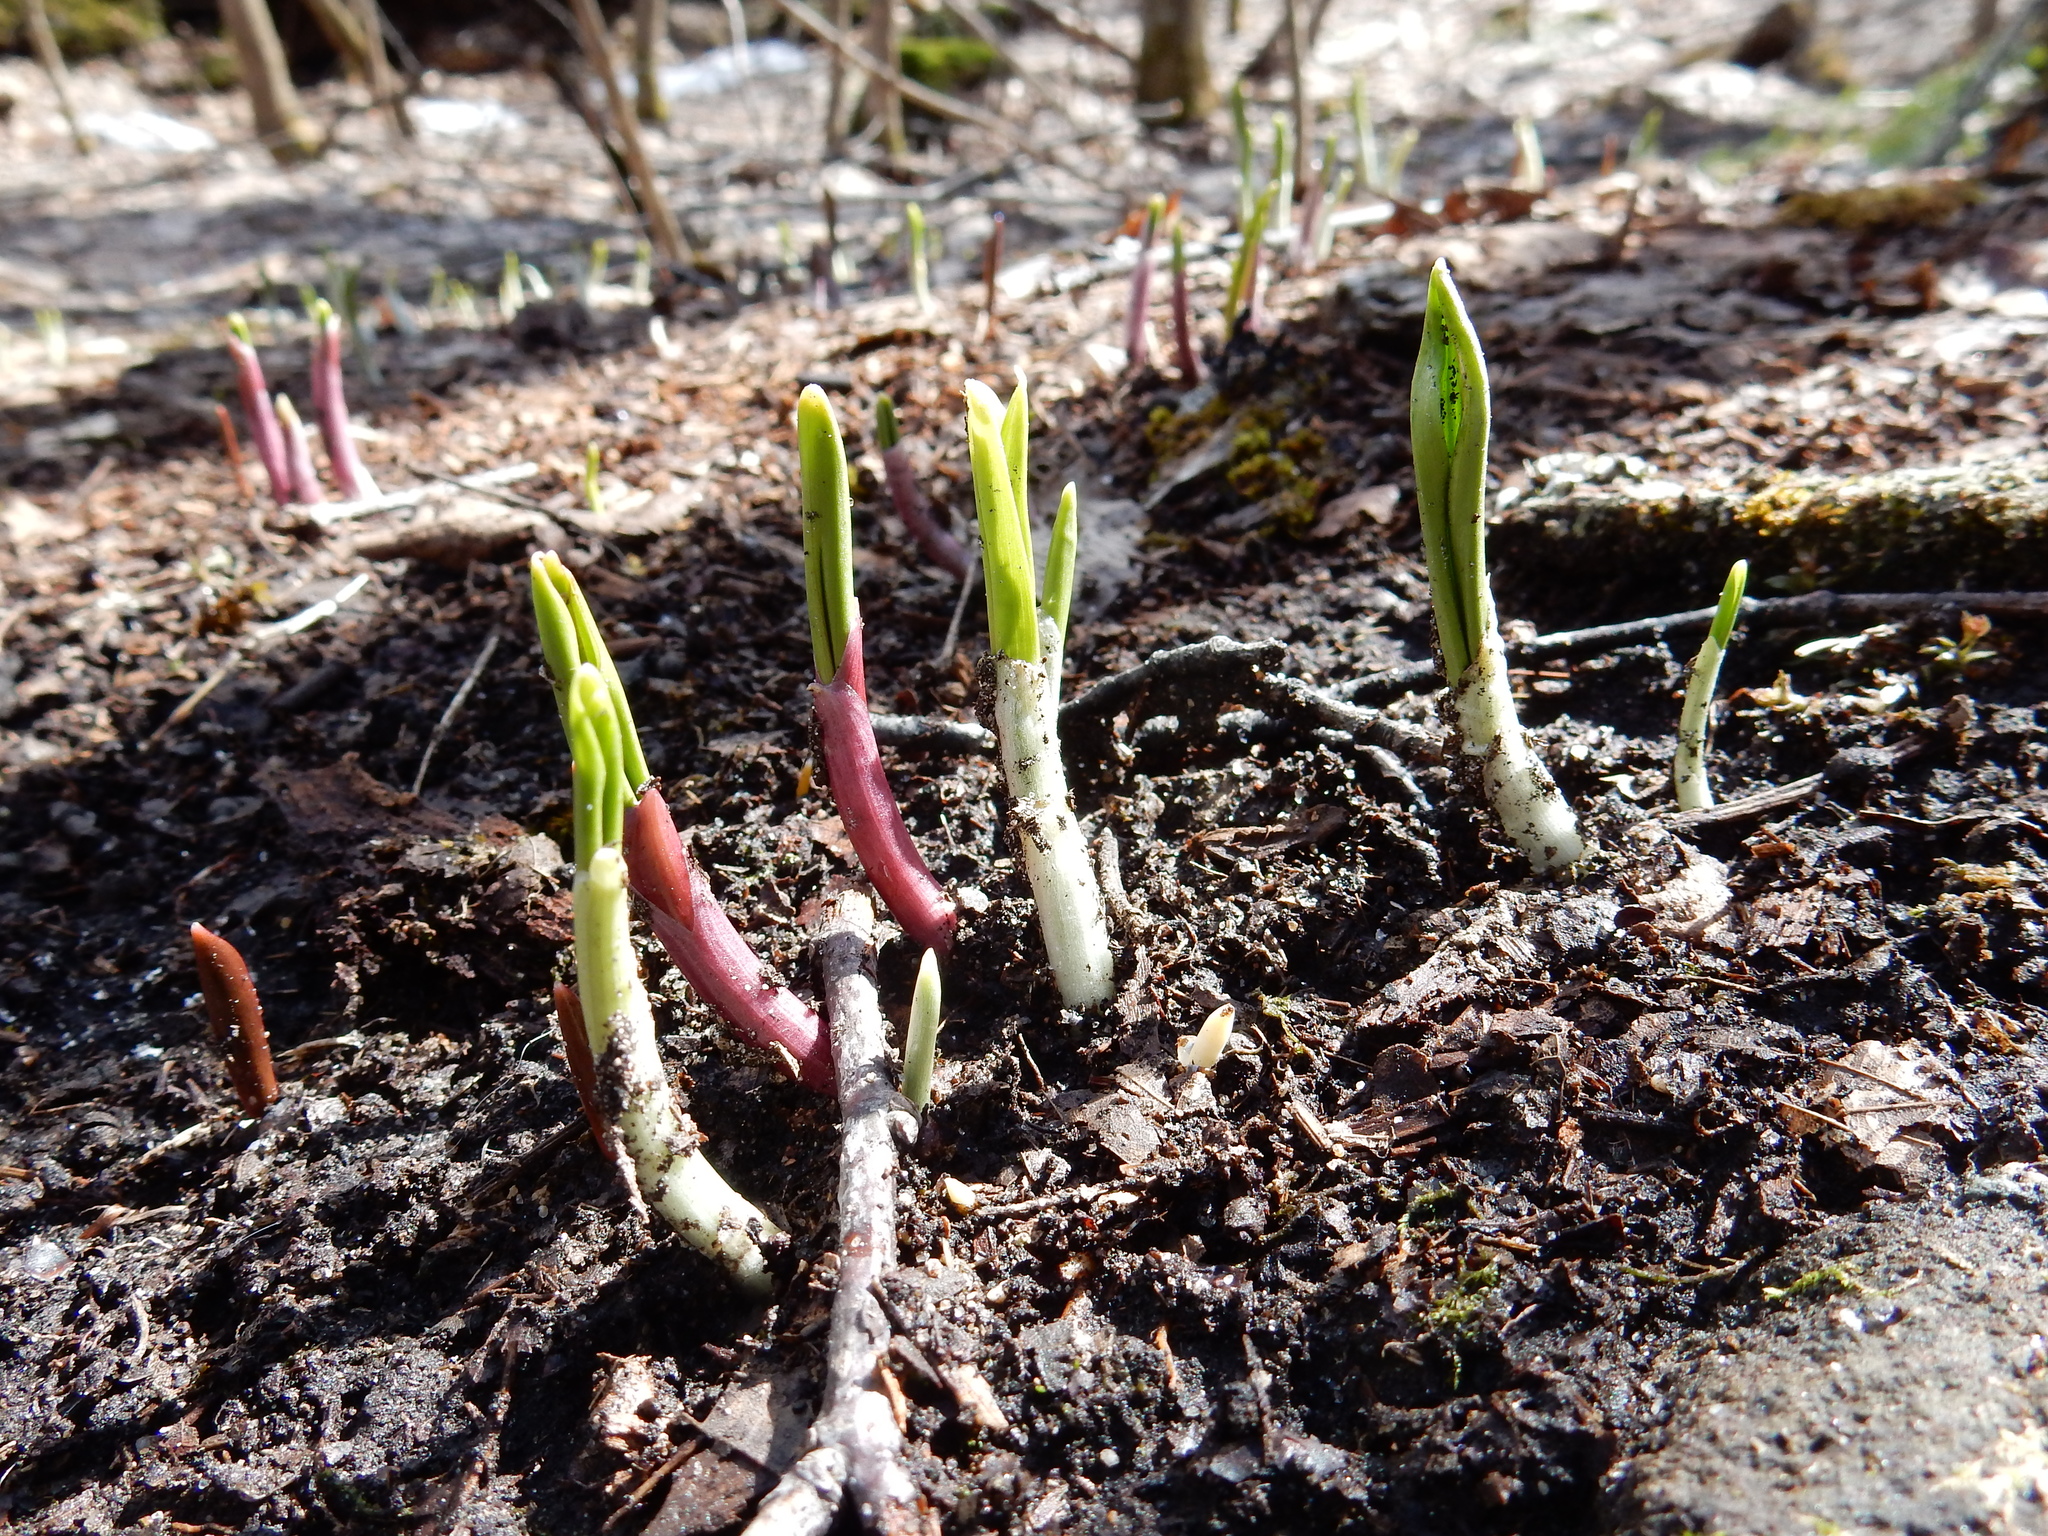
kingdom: Plantae
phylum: Tracheophyta
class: Liliopsida
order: Asparagales
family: Amaryllidaceae
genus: Allium
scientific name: Allium tricoccum
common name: Ramp
